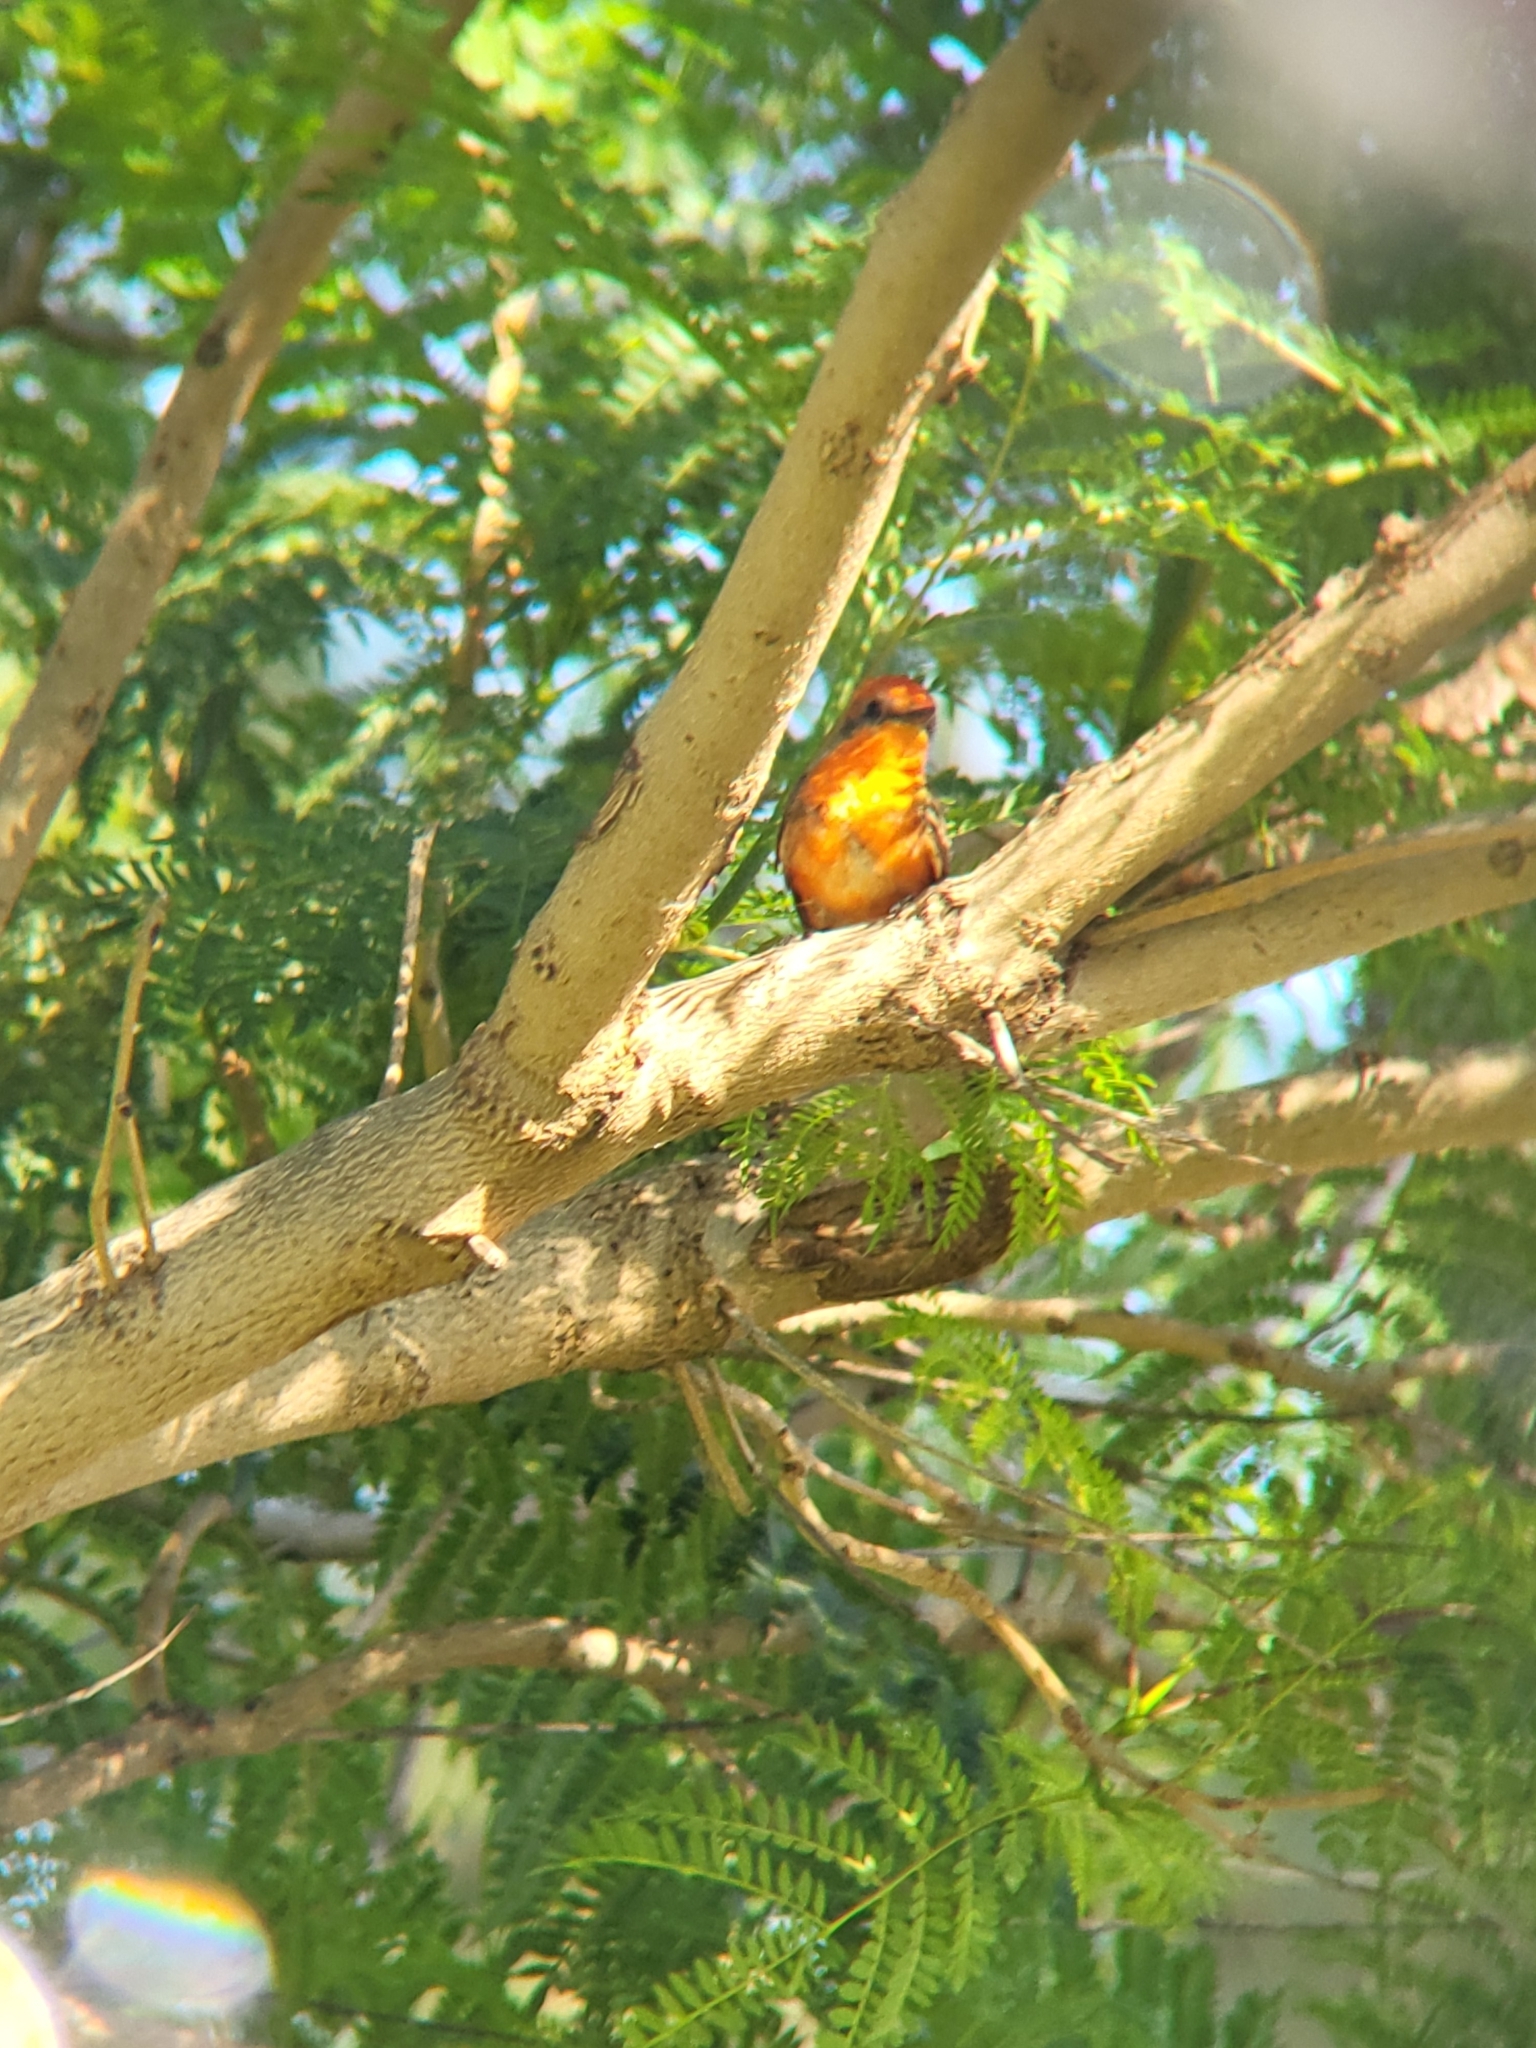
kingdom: Animalia
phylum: Chordata
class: Aves
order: Passeriformes
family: Tyrannidae
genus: Pyrocephalus
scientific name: Pyrocephalus rubinus
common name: Vermilion flycatcher
